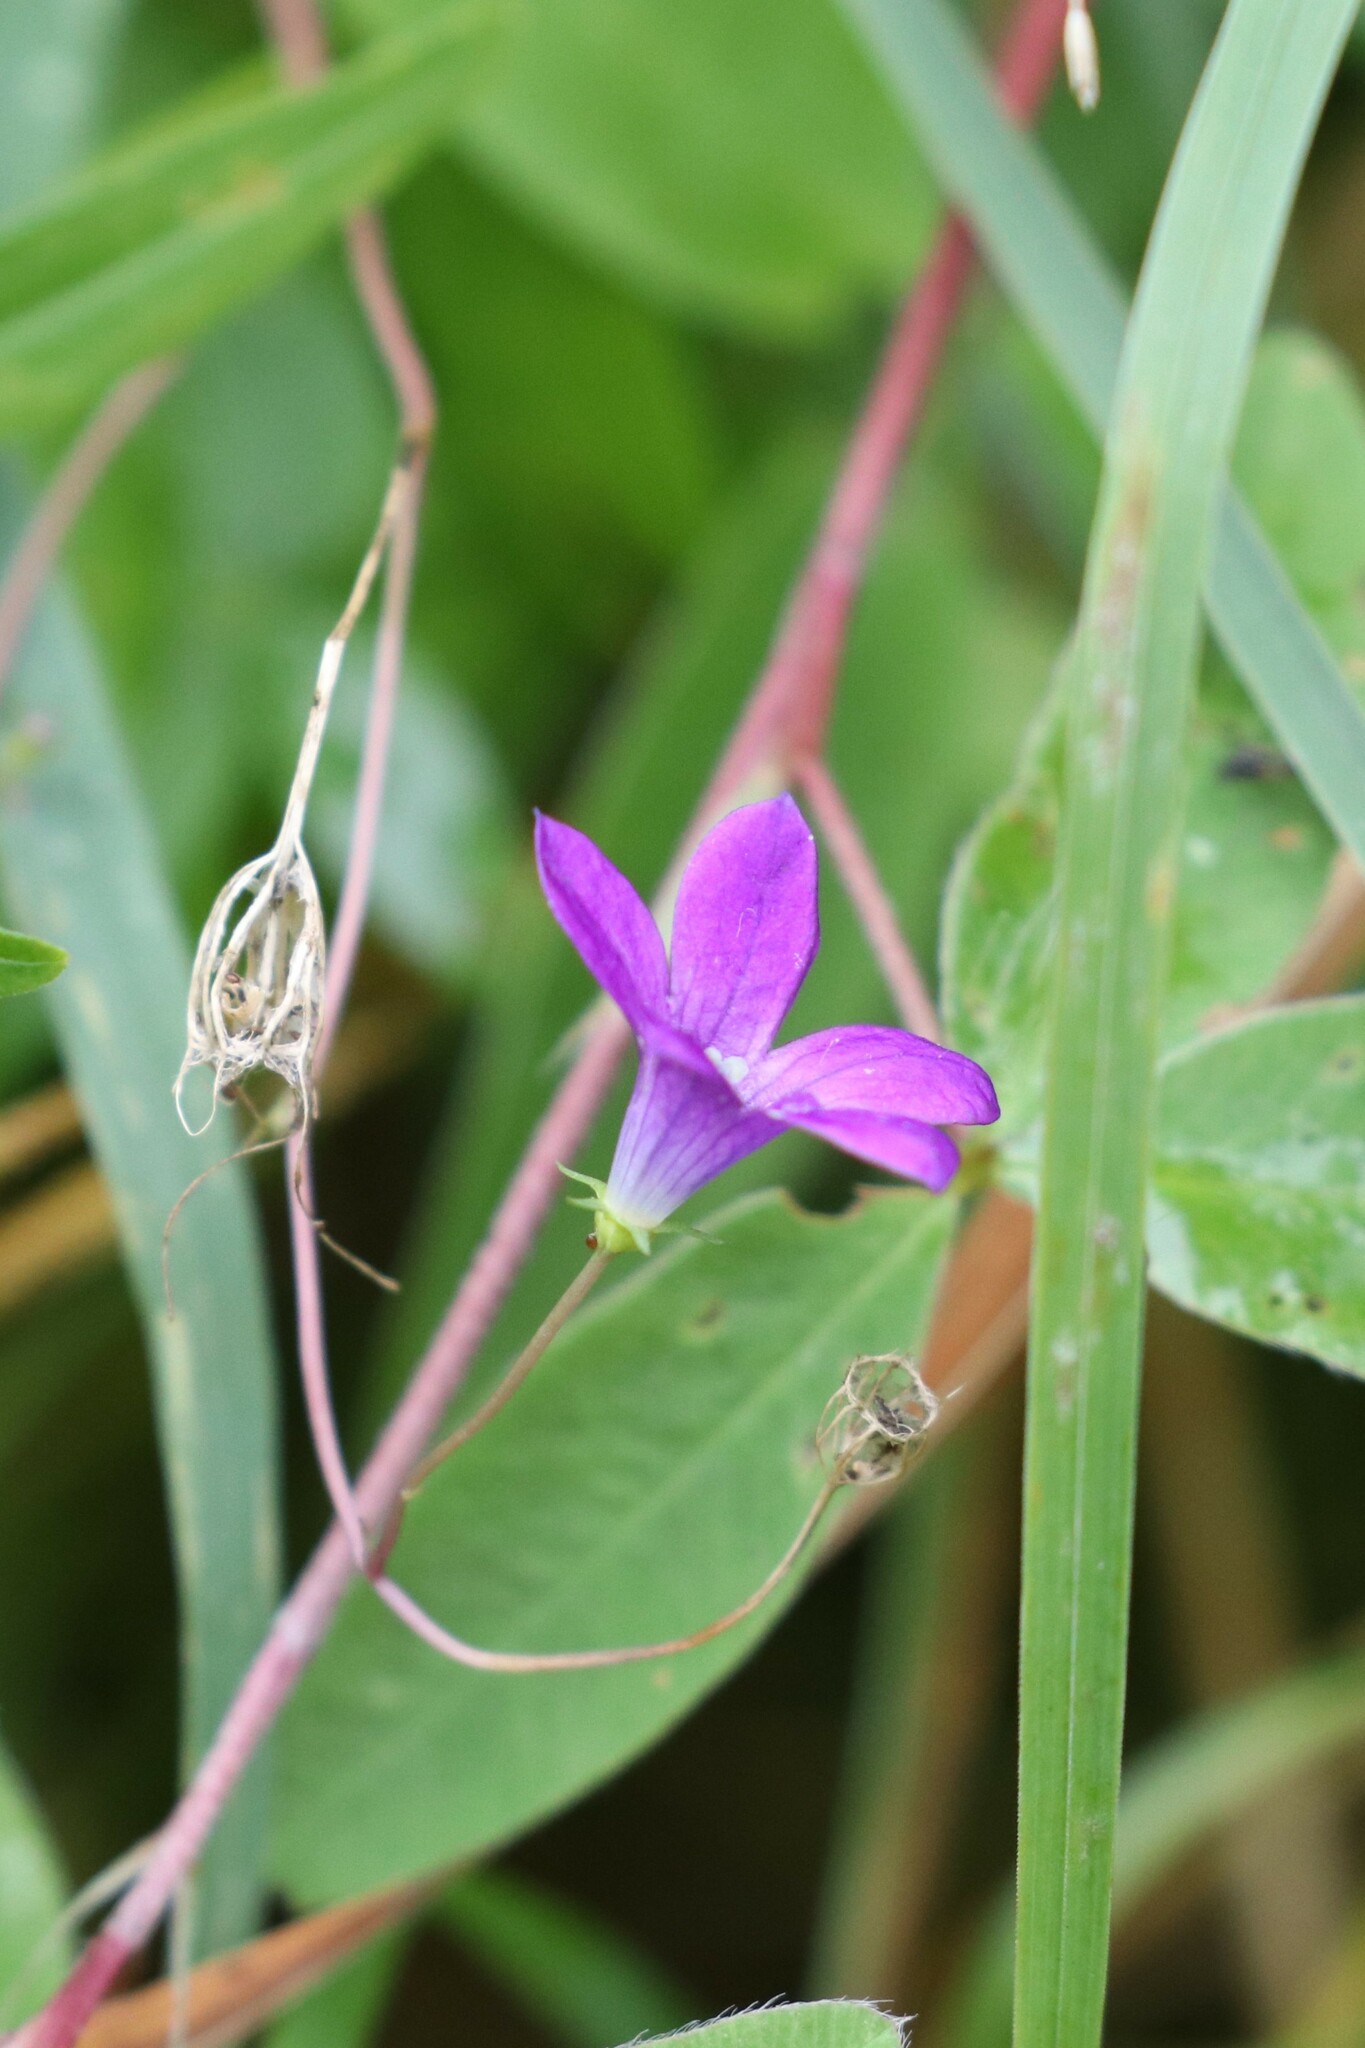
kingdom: Plantae
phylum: Tracheophyta
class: Magnoliopsida
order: Asterales
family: Campanulaceae
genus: Campanula
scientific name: Campanula patula
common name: Spreading bellflower
